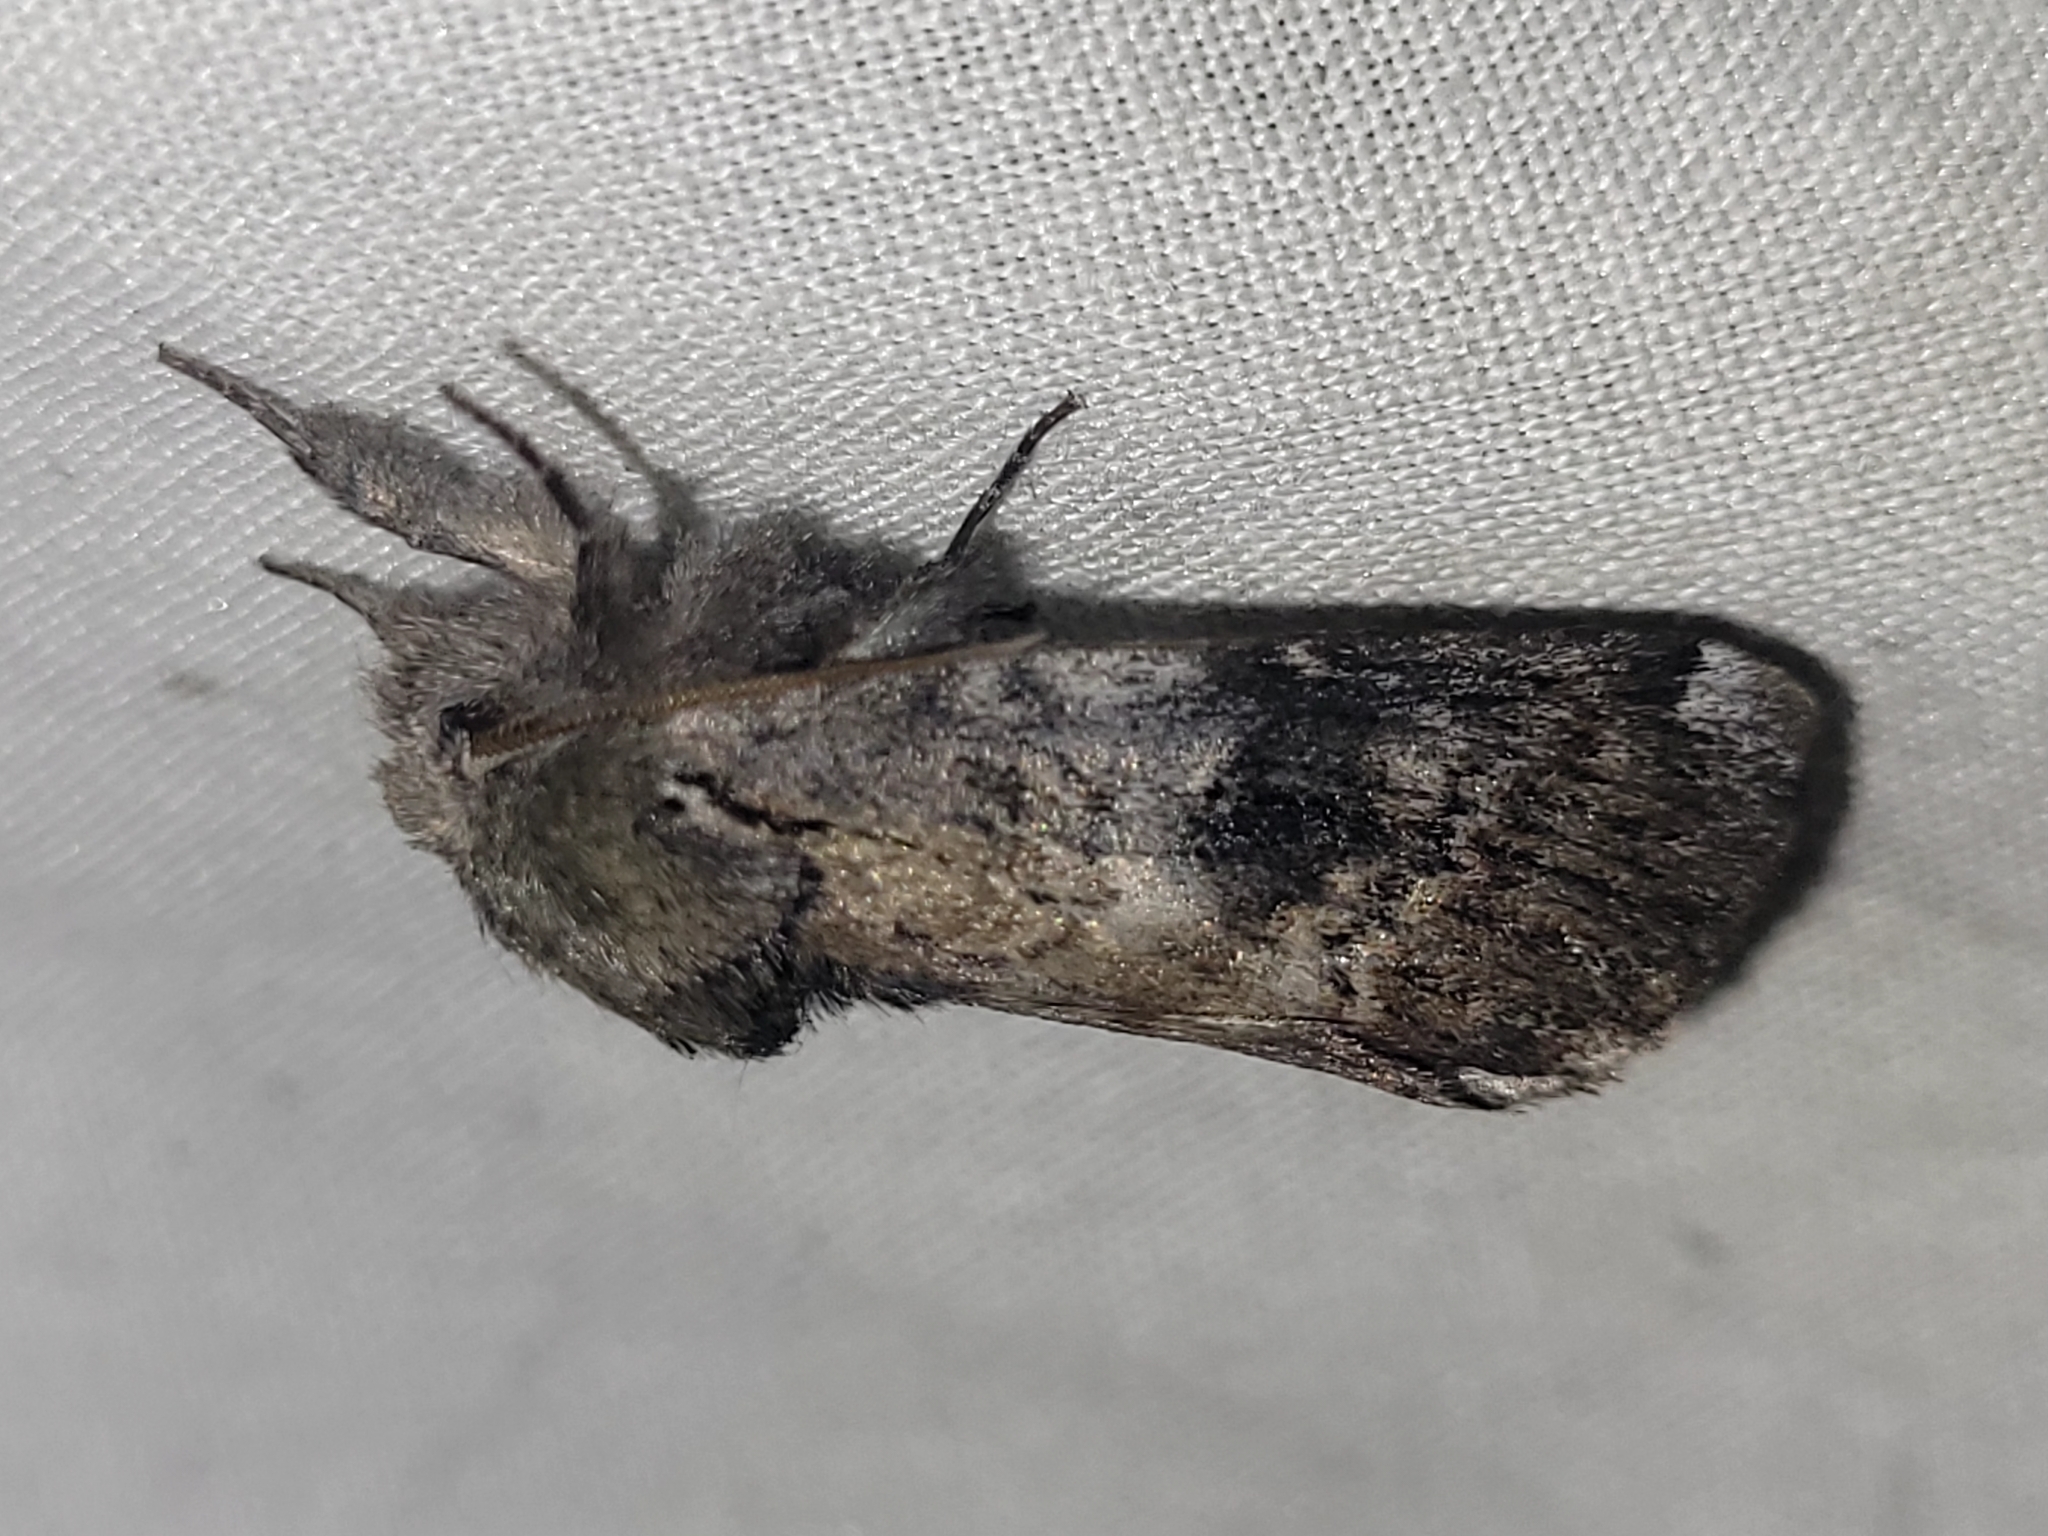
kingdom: Animalia
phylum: Arthropoda
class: Insecta
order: Lepidoptera
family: Notodontidae
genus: Schizura
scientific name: Schizura
